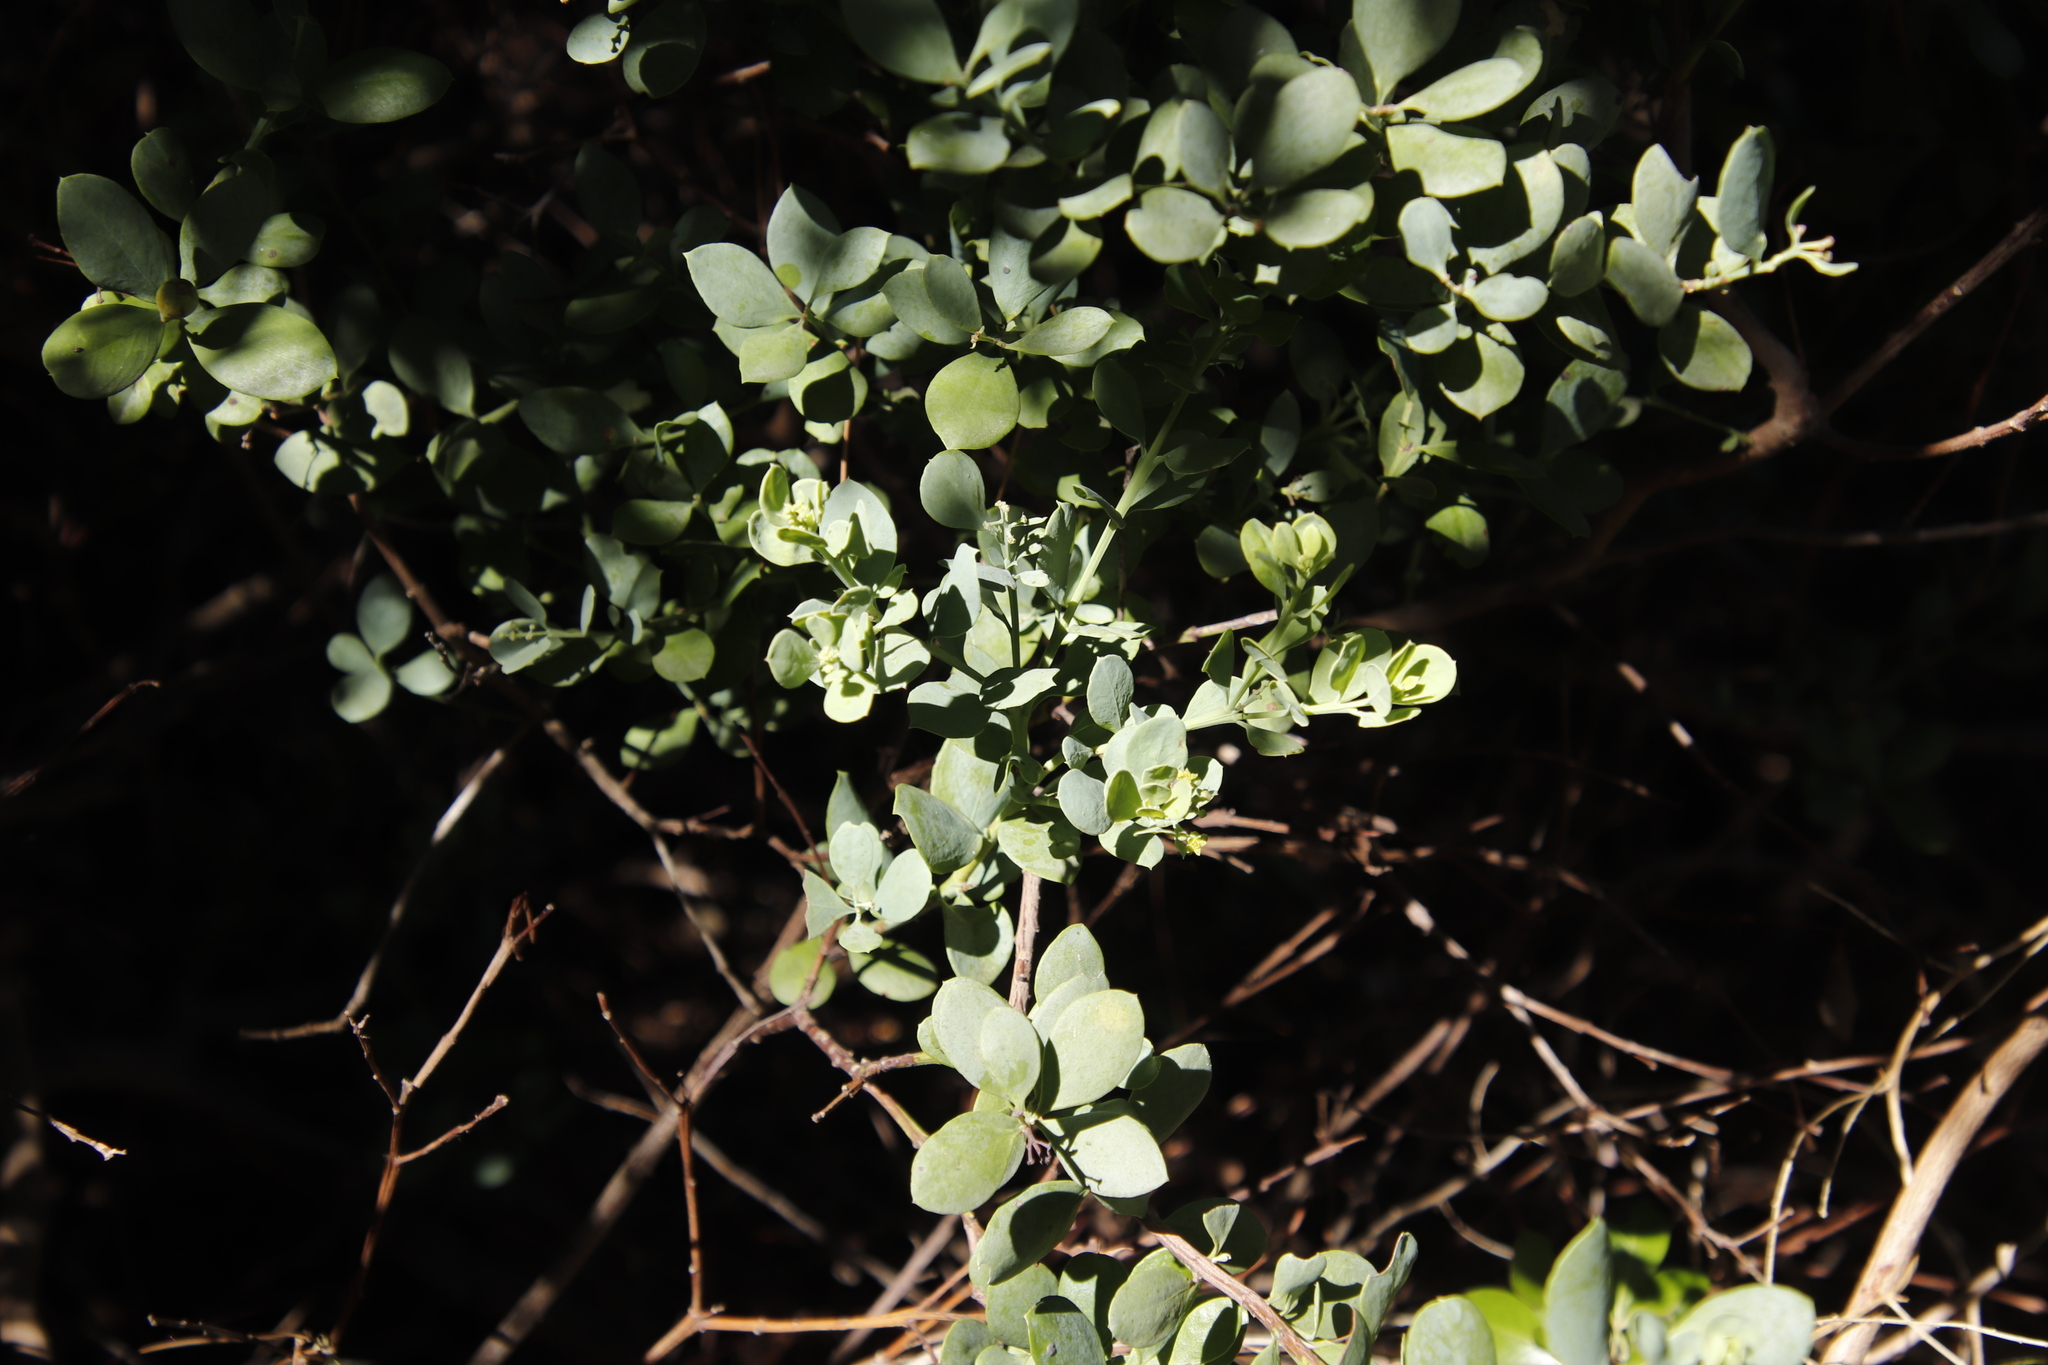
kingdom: Plantae
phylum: Tracheophyta
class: Magnoliopsida
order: Santalales
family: Santalaceae
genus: Osyris
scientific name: Osyris compressa
